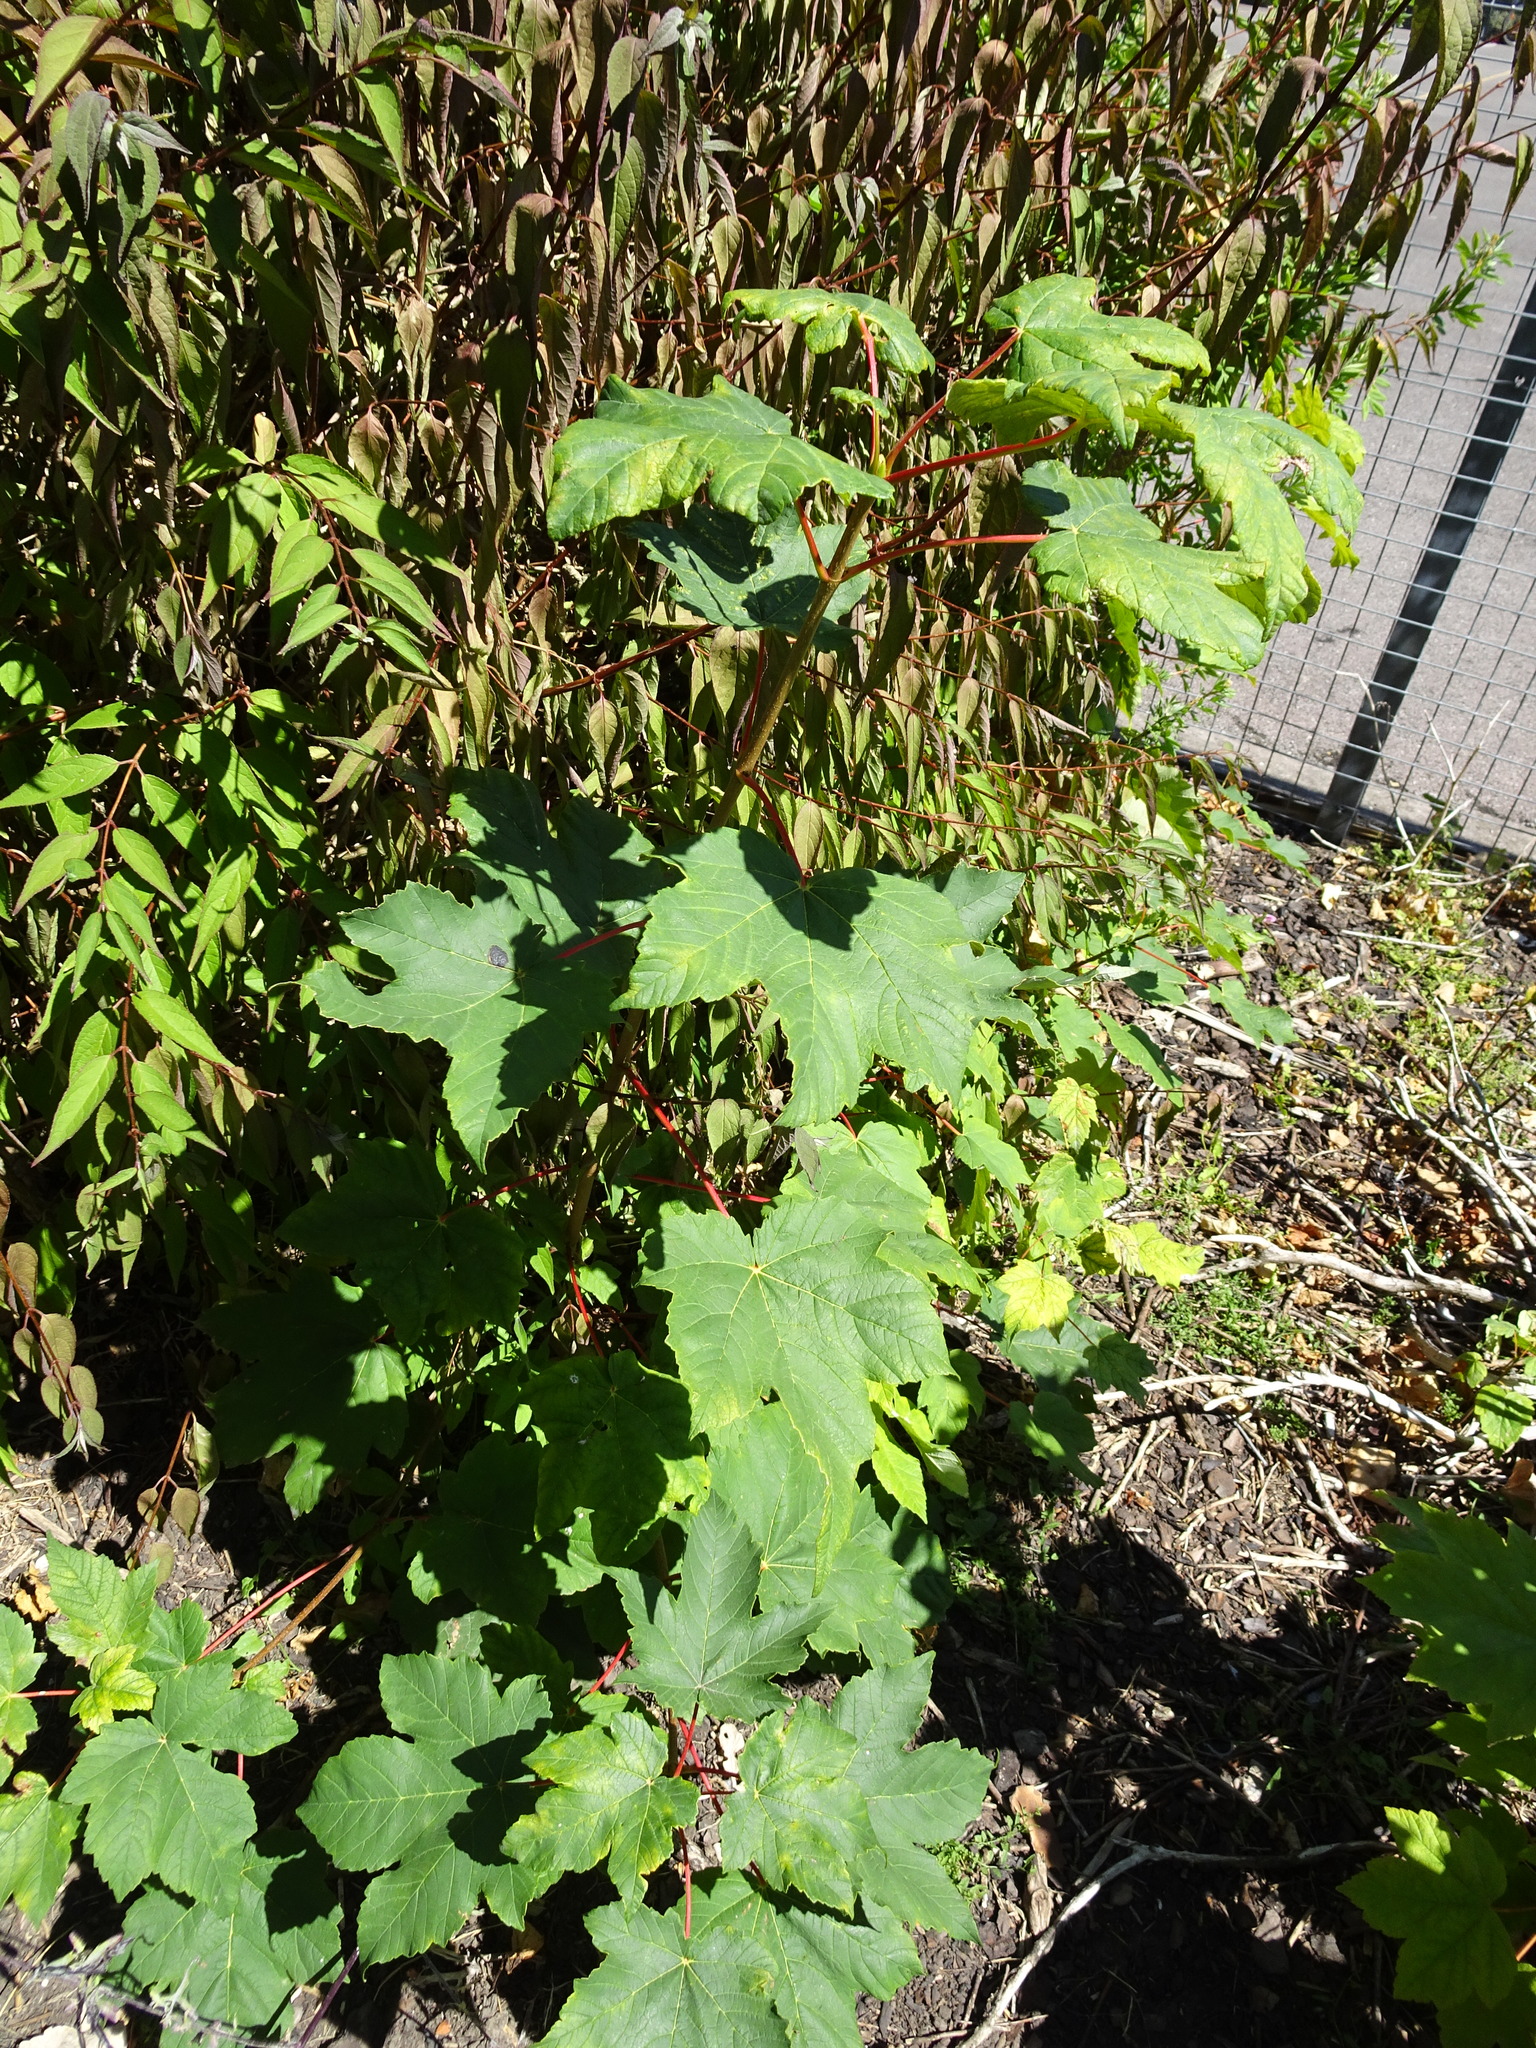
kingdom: Plantae
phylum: Tracheophyta
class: Magnoliopsida
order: Sapindales
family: Sapindaceae
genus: Acer
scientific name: Acer pseudoplatanus
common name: Sycamore
